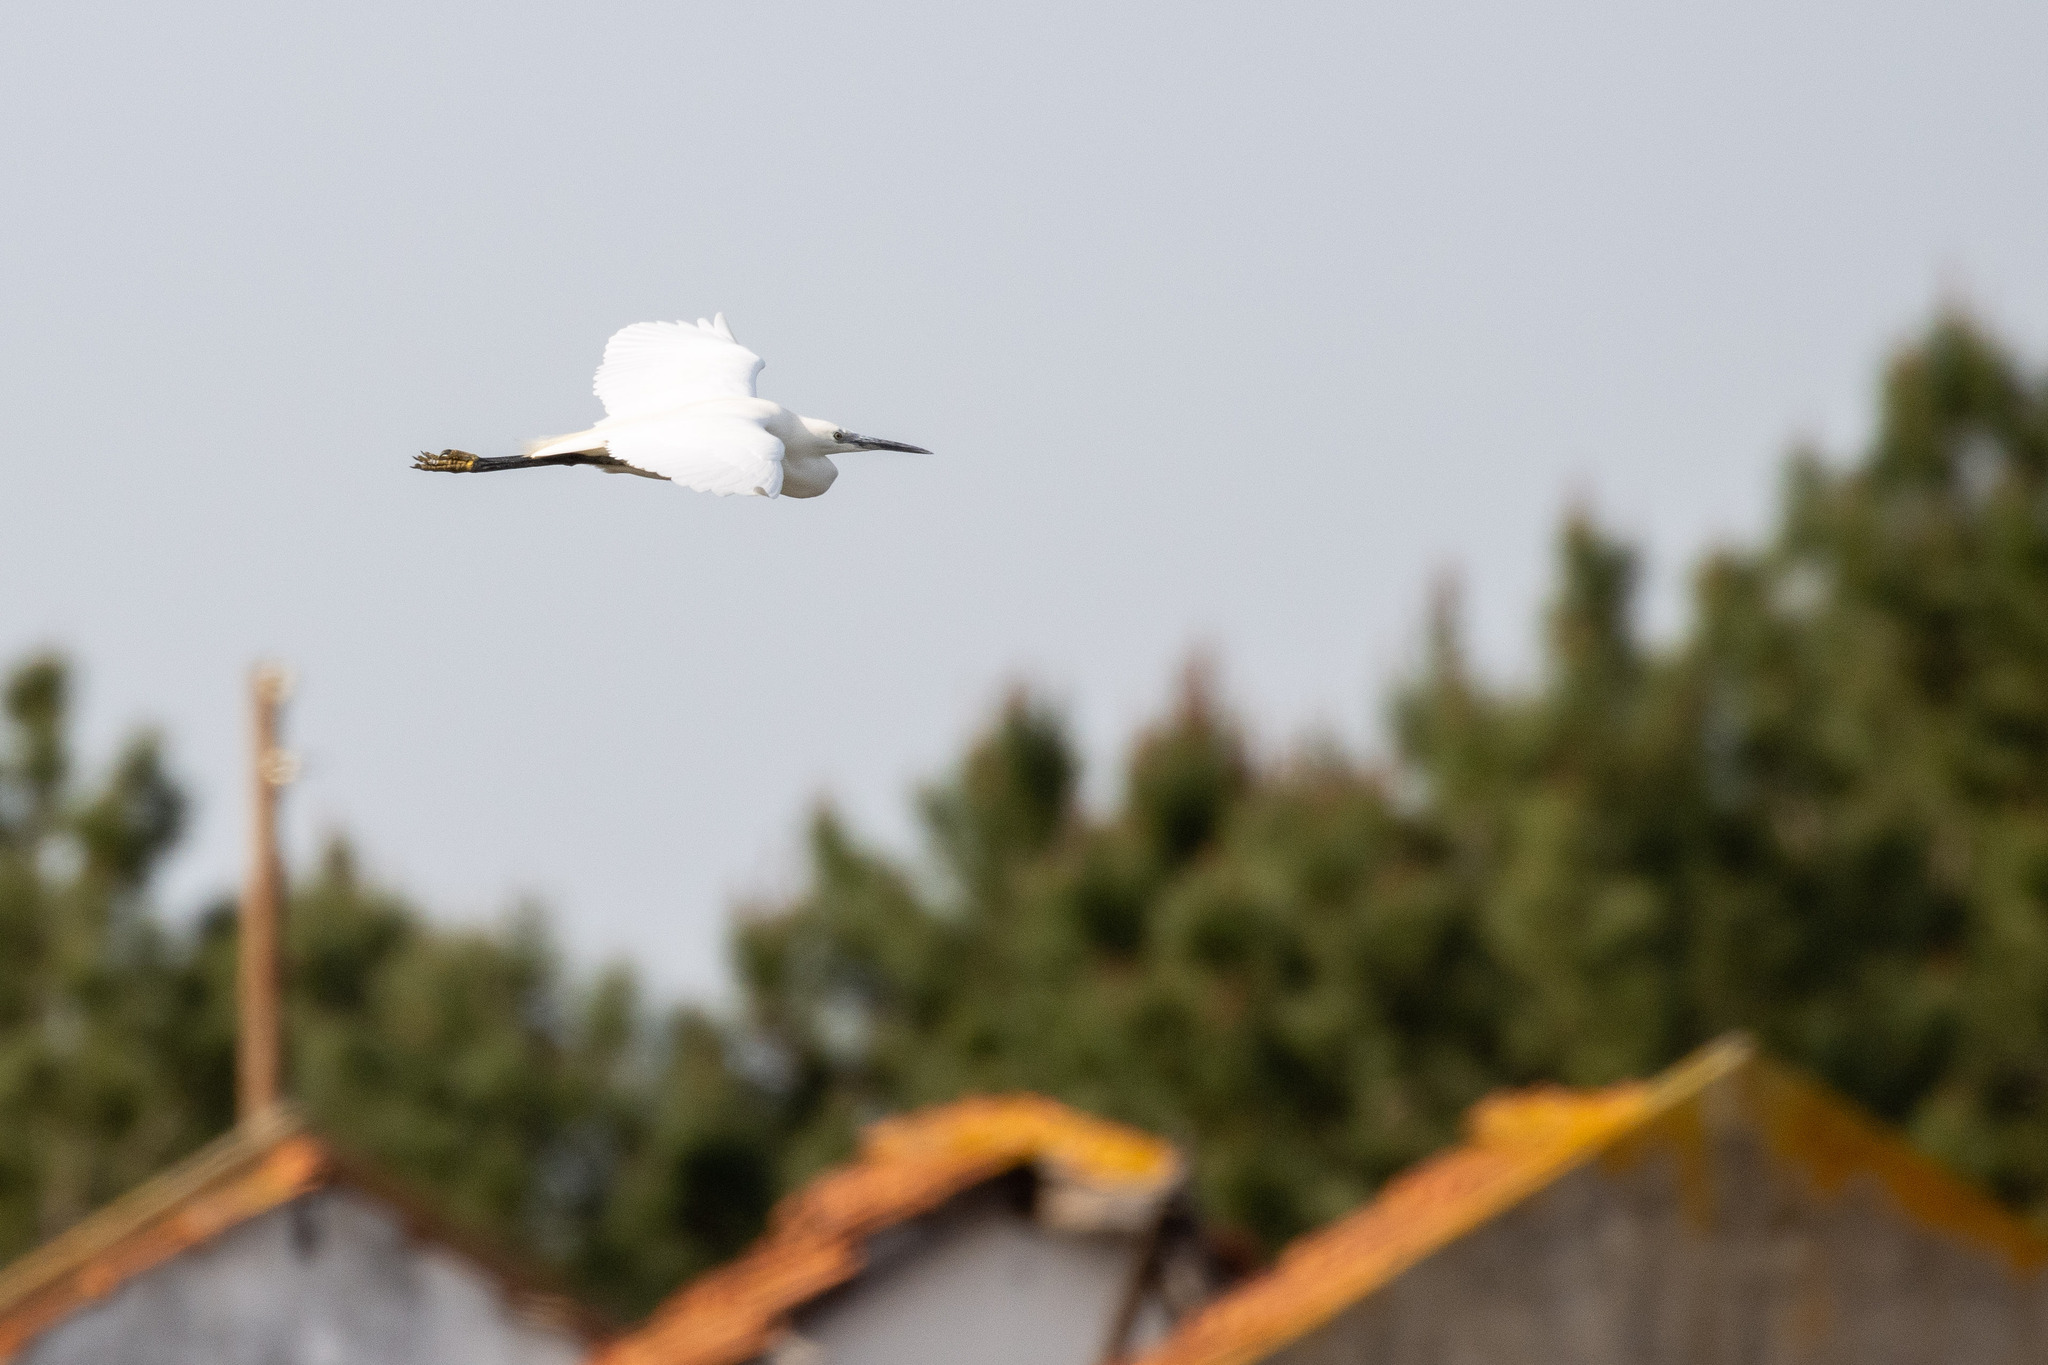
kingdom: Animalia
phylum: Chordata
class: Aves
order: Pelecaniformes
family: Ardeidae
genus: Egretta
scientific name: Egretta garzetta
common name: Little egret
